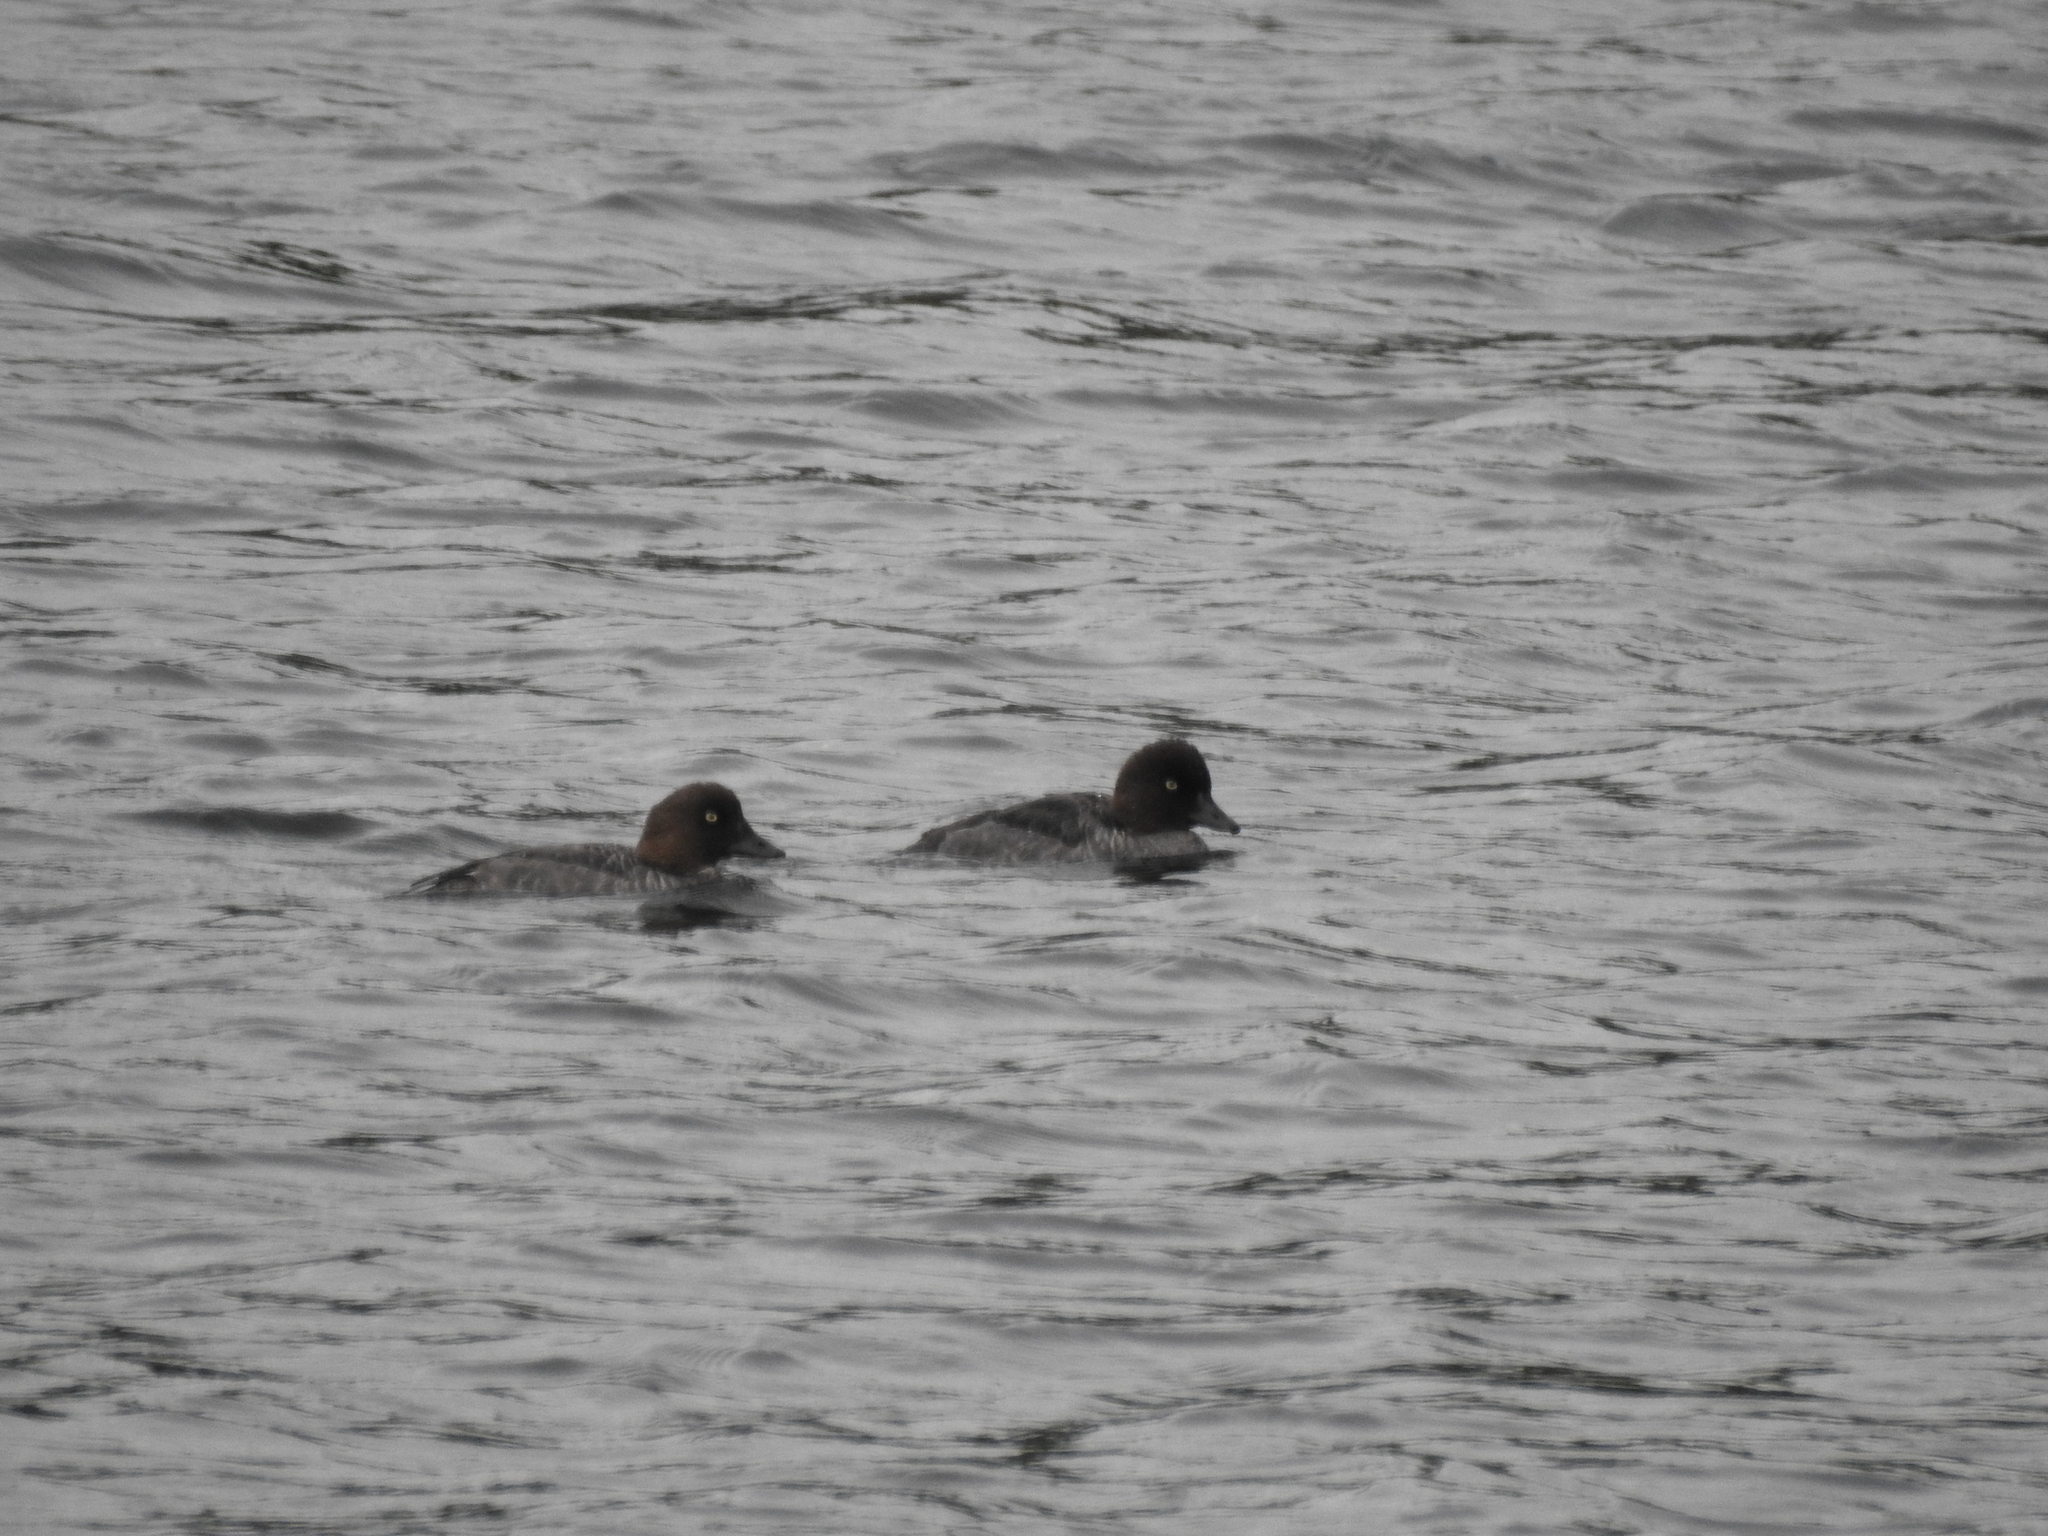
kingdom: Animalia
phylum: Chordata
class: Aves
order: Anseriformes
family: Anatidae
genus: Bucephala
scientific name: Bucephala clangula
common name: Common goldeneye
